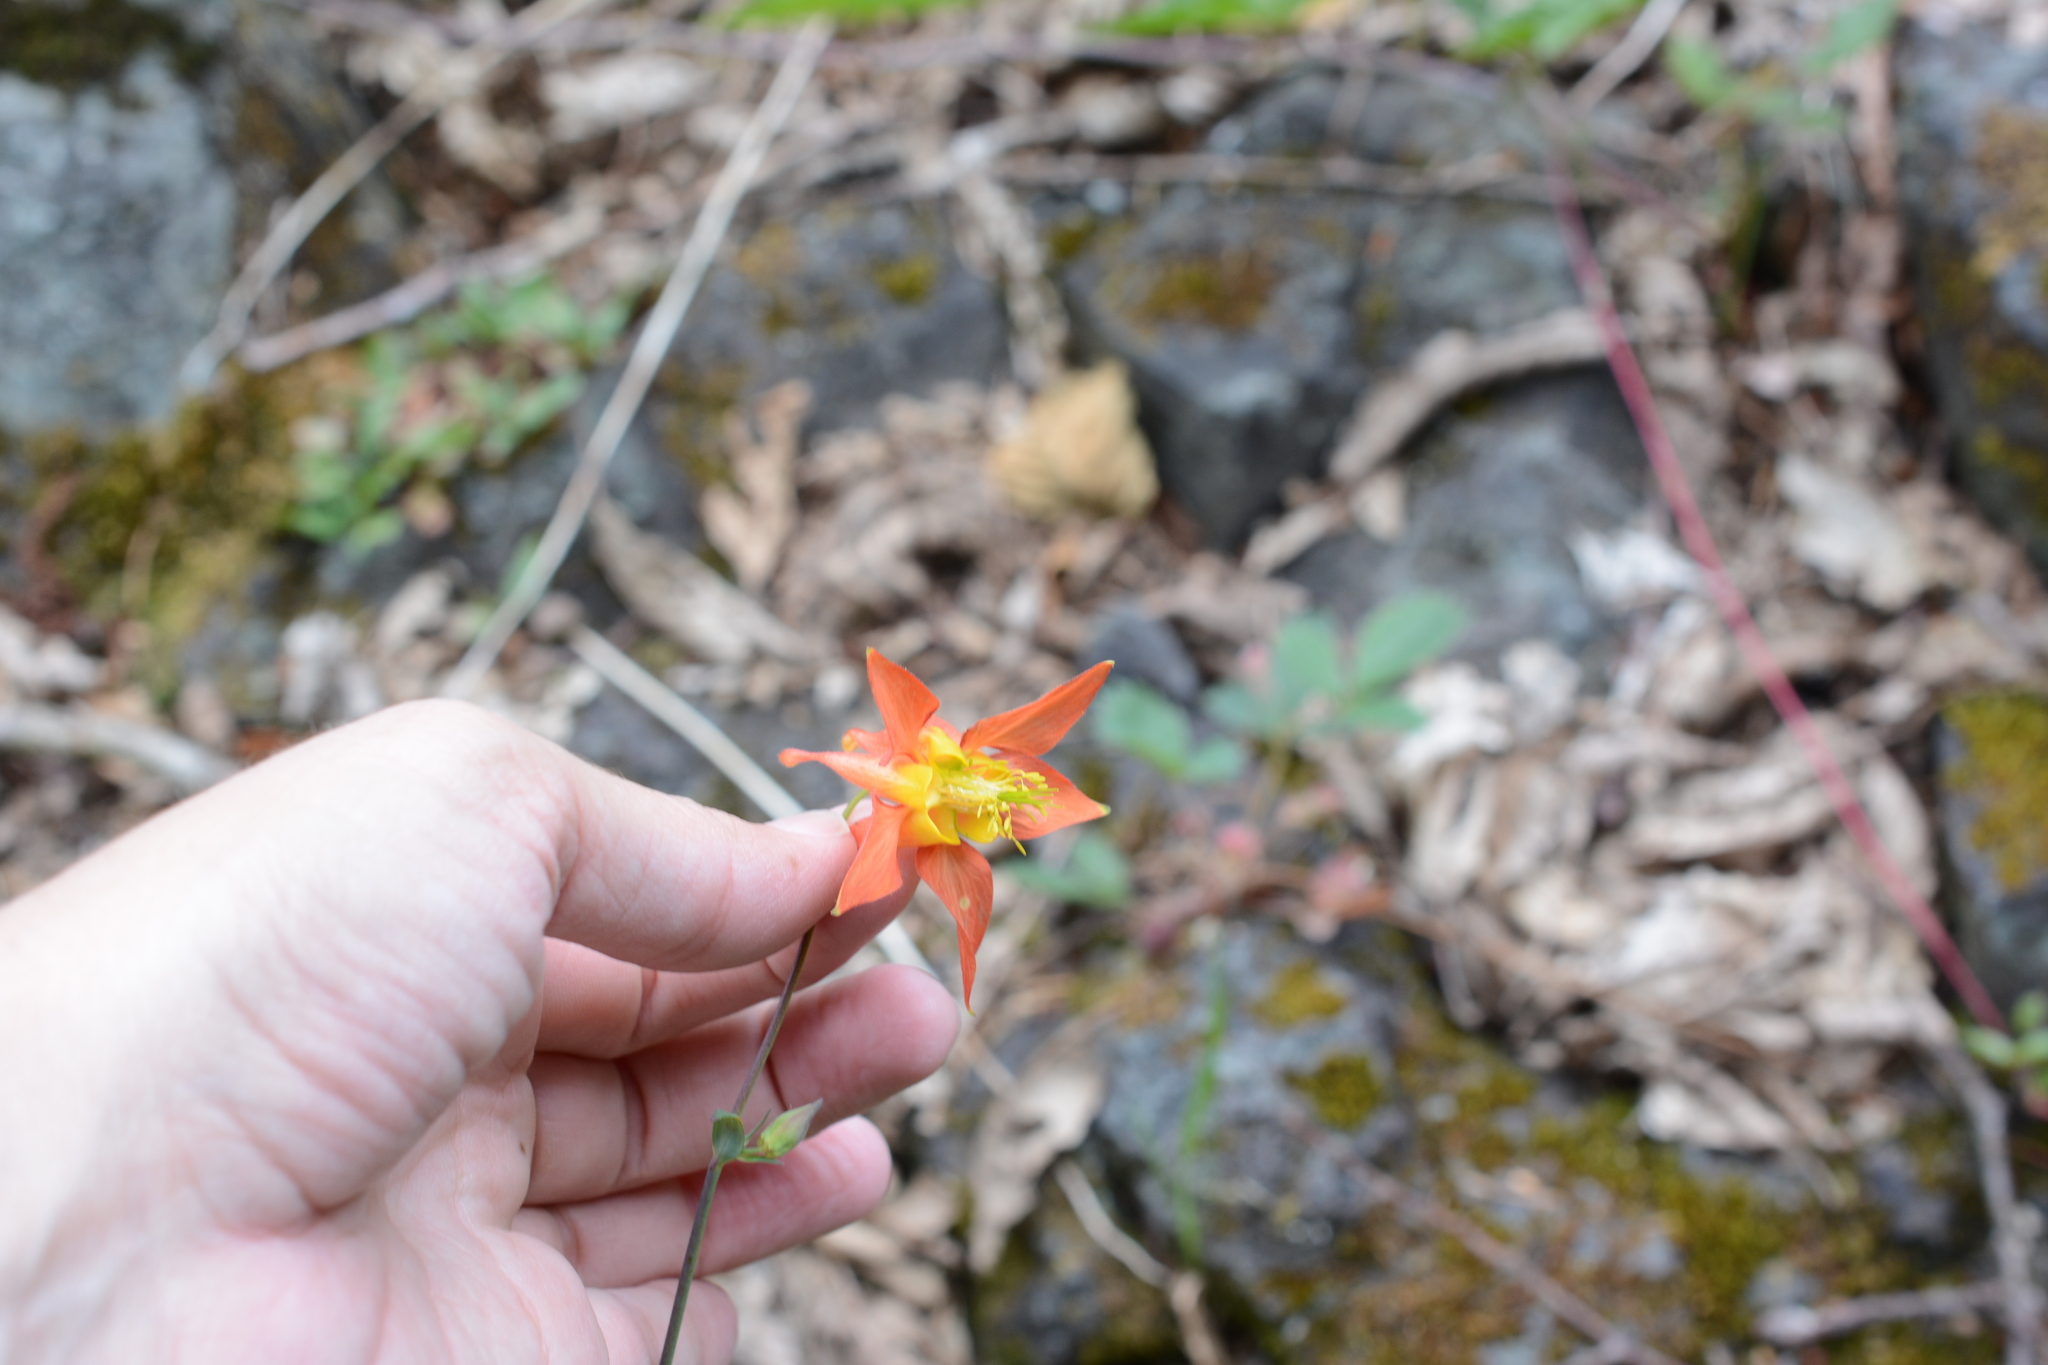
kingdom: Plantae
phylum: Tracheophyta
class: Magnoliopsida
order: Ranunculales
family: Ranunculaceae
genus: Aquilegia
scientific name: Aquilegia formosa
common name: Sitka columbine
